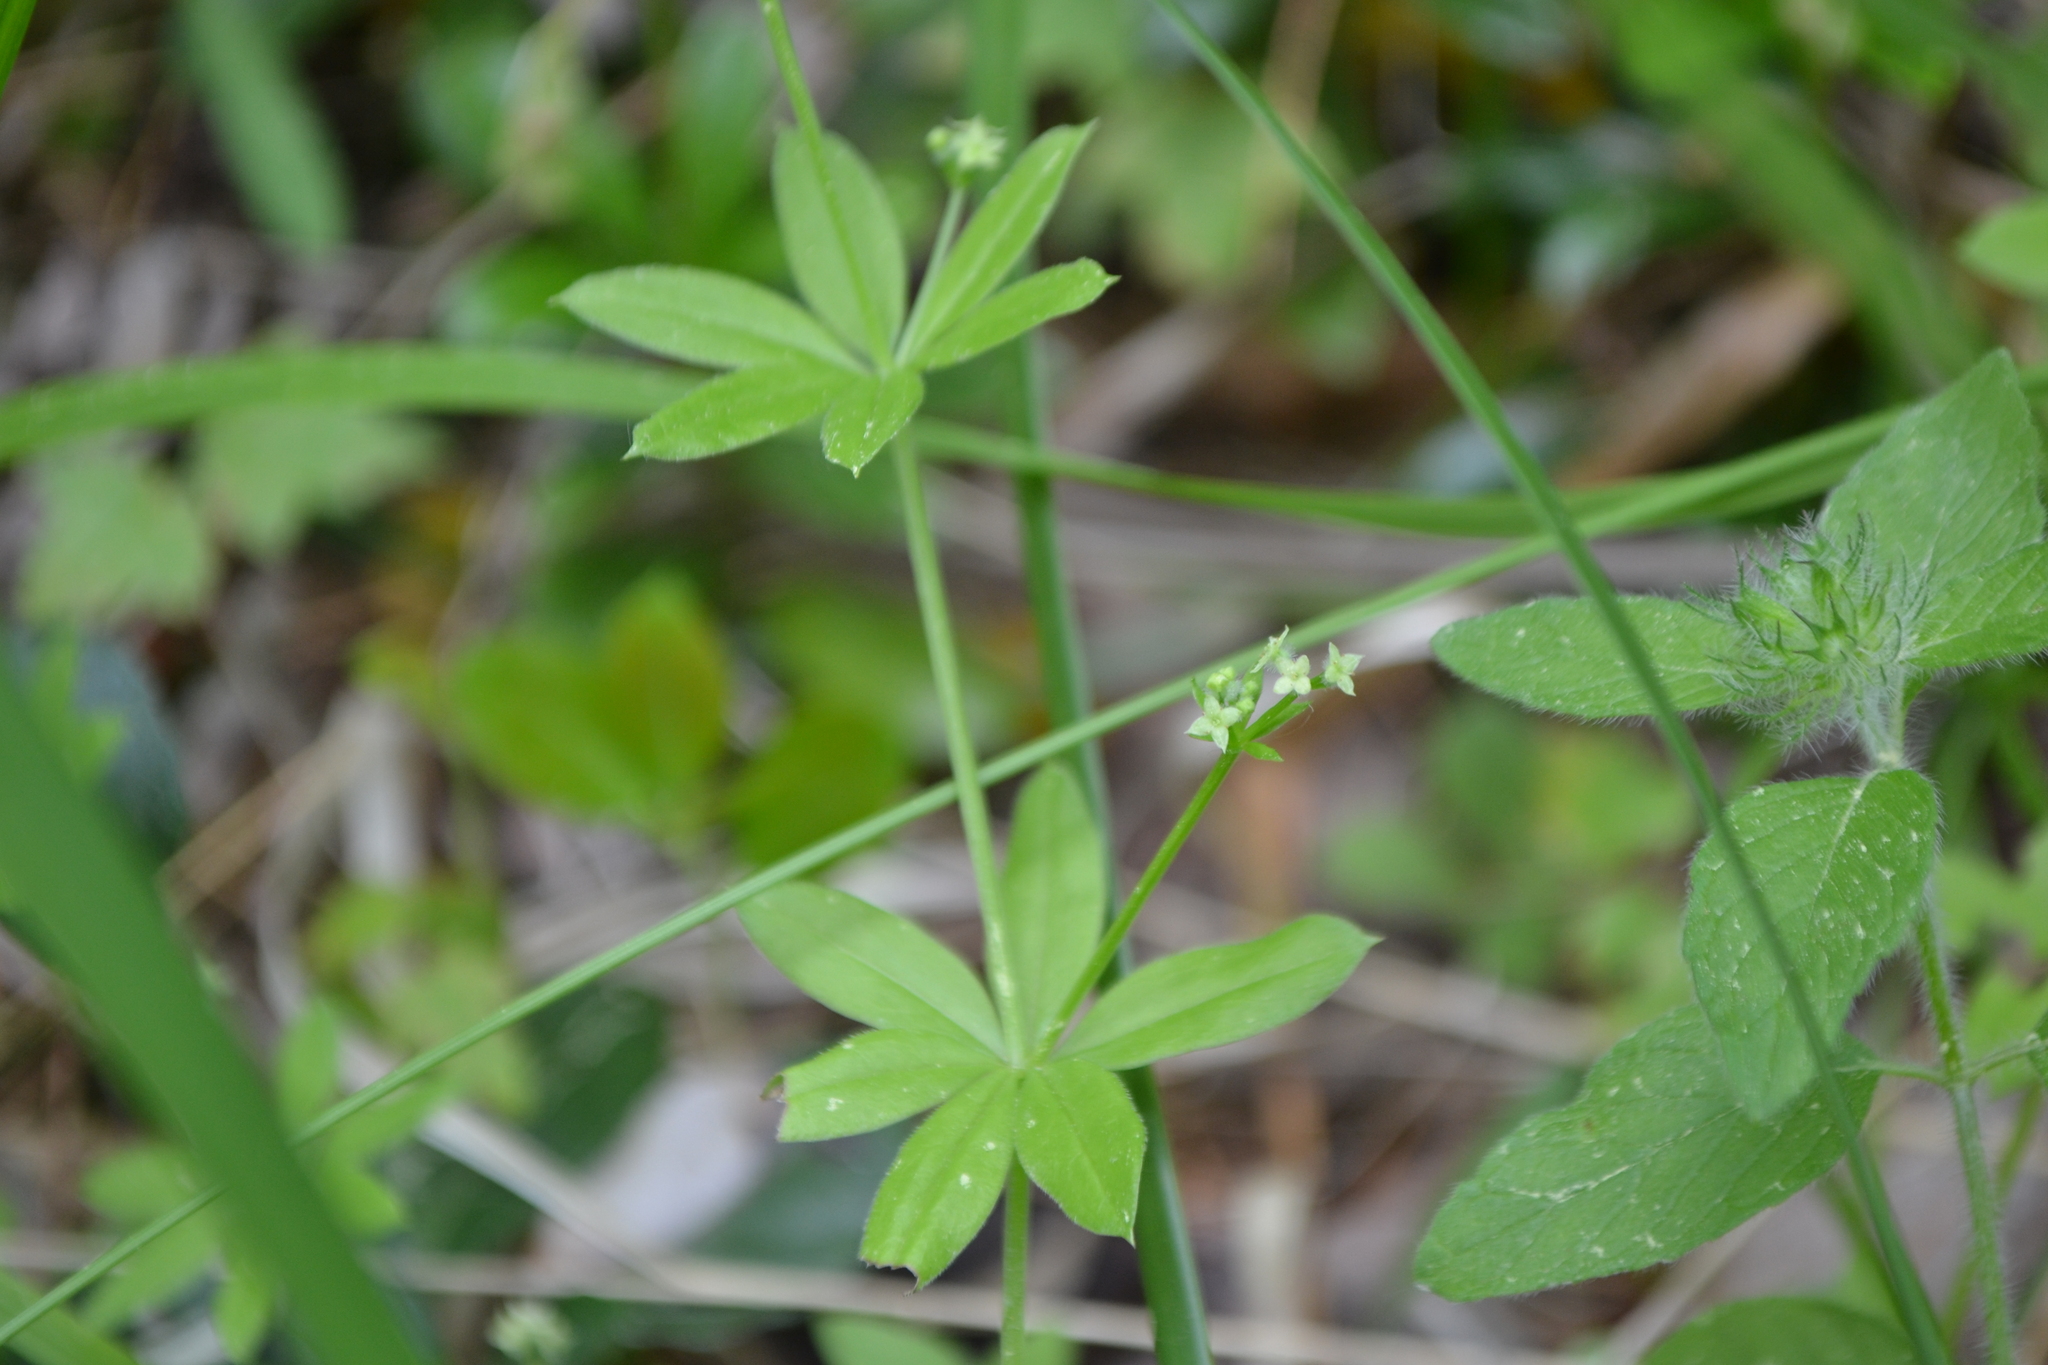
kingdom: Plantae
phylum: Tracheophyta
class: Magnoliopsida
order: Gentianales
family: Rubiaceae
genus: Galium
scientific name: Galium triflorum
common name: Fragrant bedstraw
